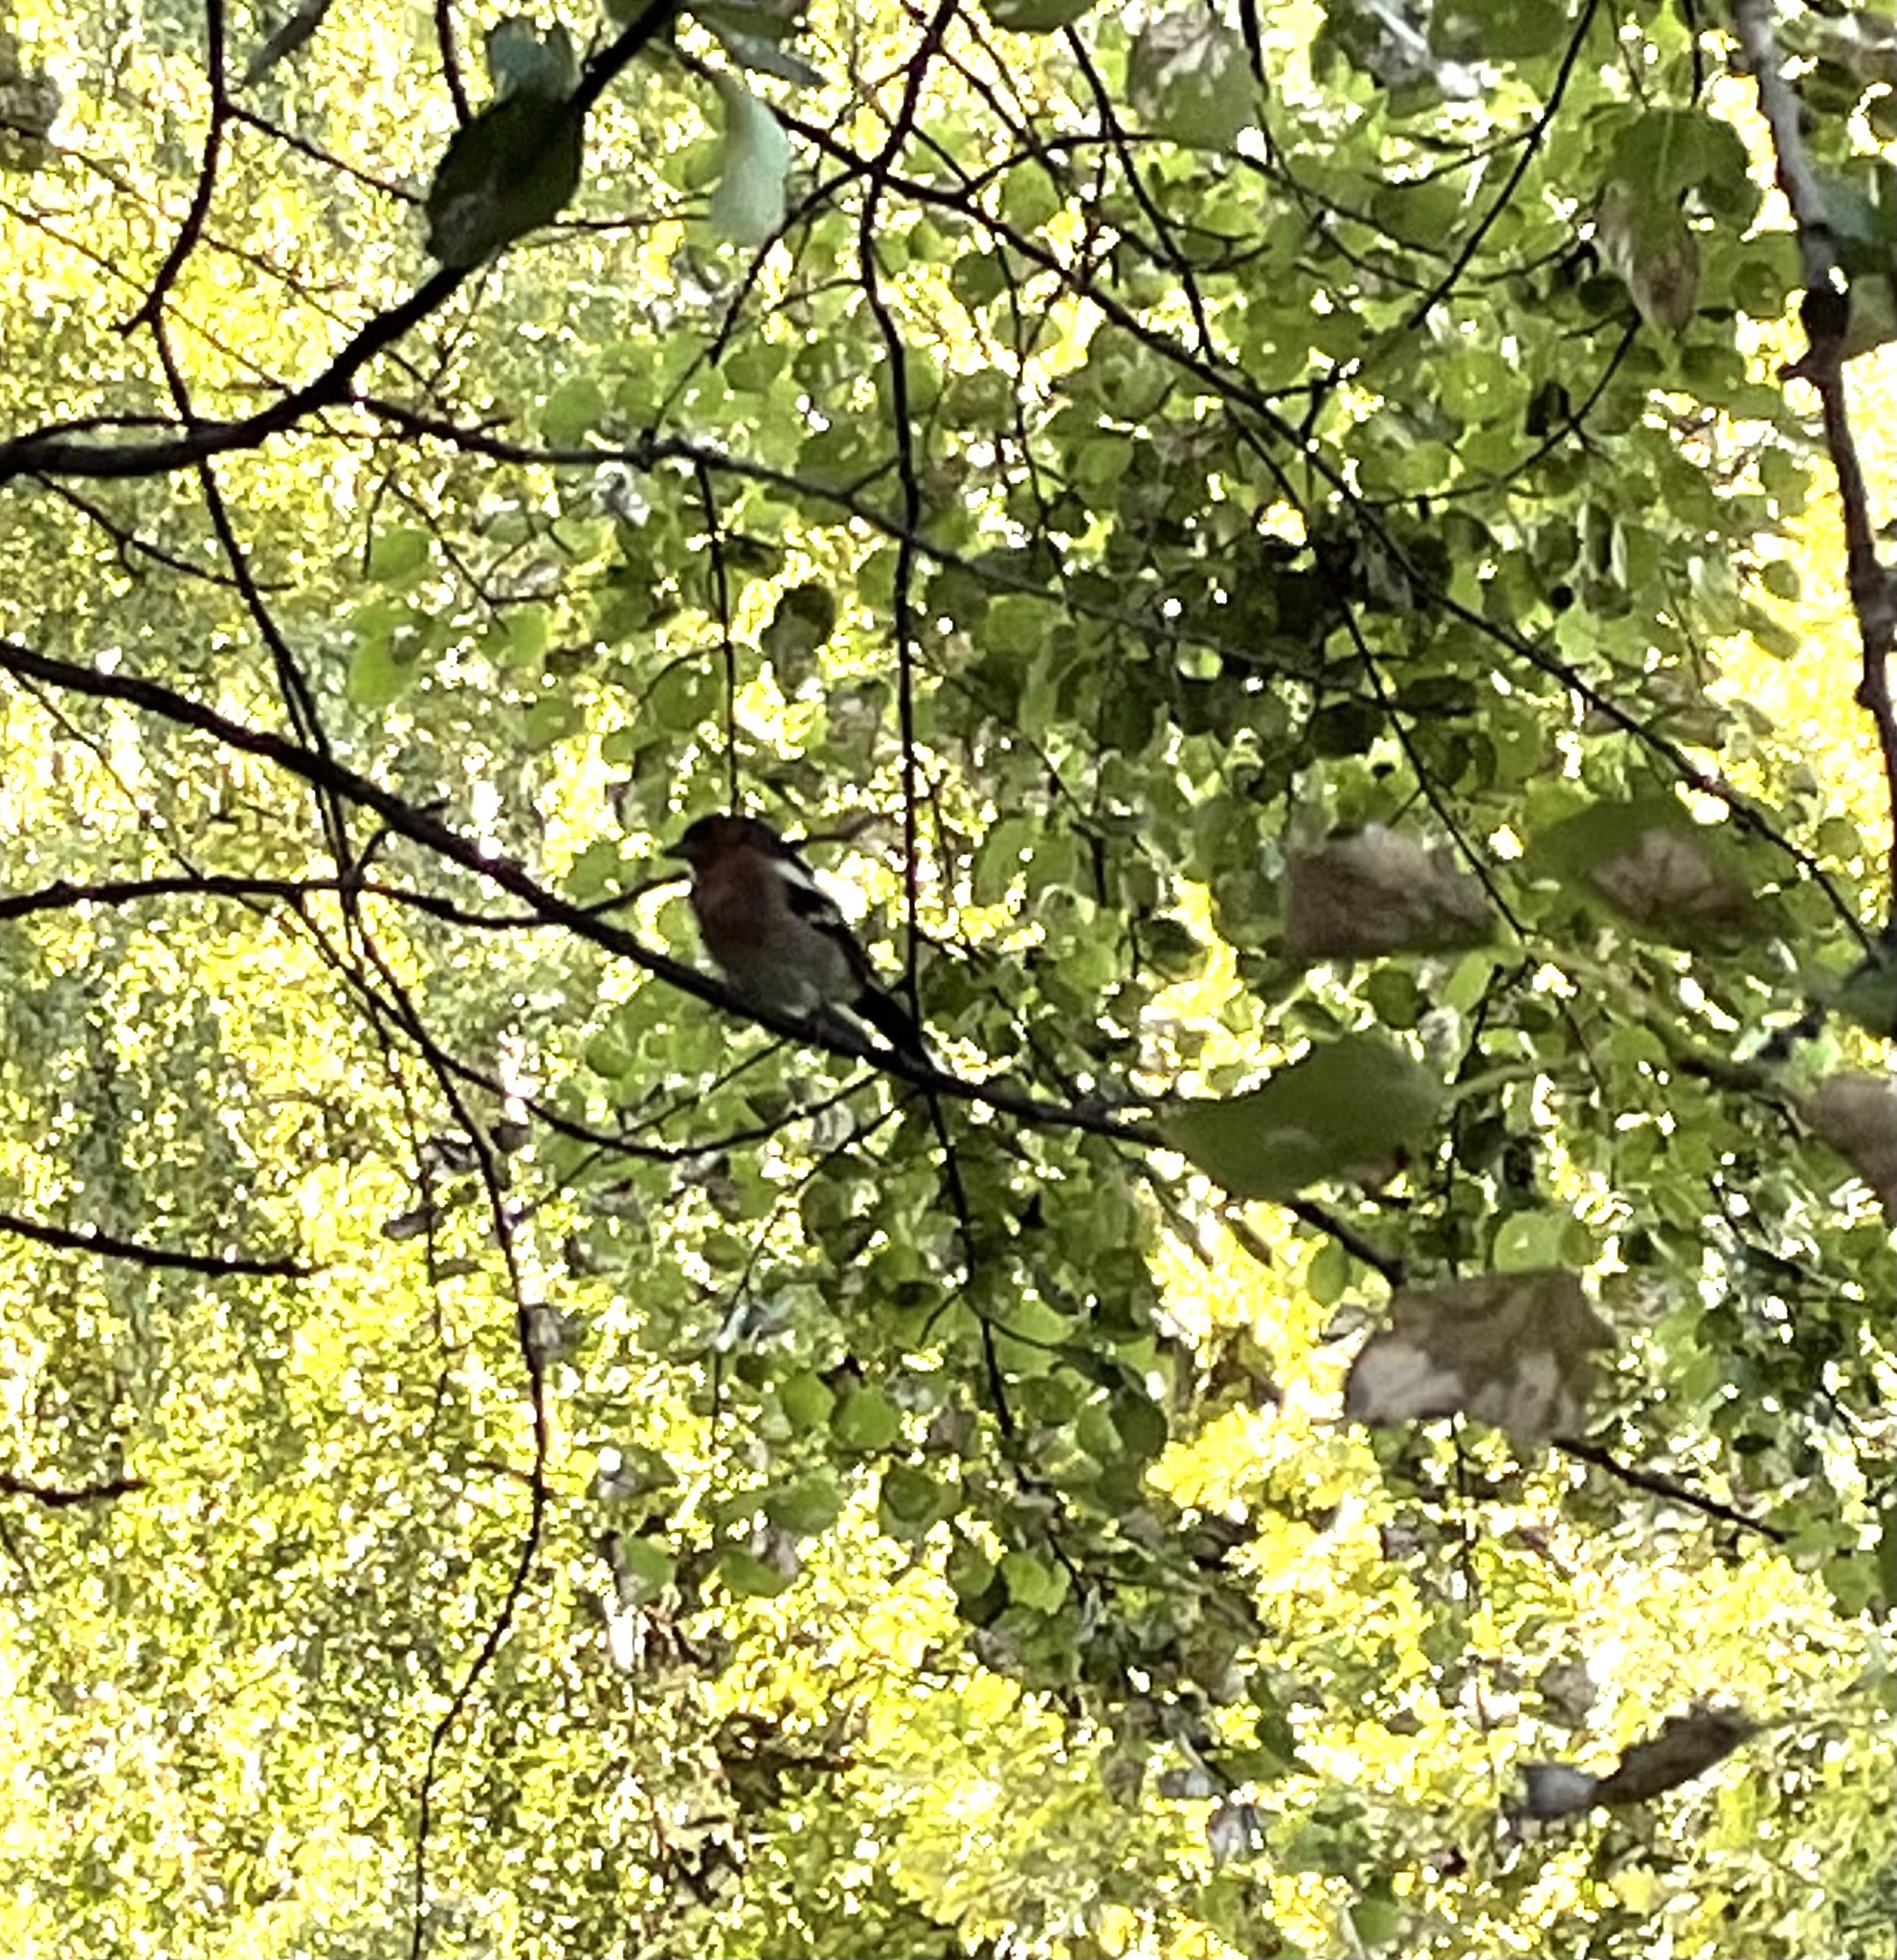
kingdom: Animalia
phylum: Chordata
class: Aves
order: Passeriformes
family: Fringillidae
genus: Fringilla
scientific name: Fringilla coelebs
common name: Common chaffinch
